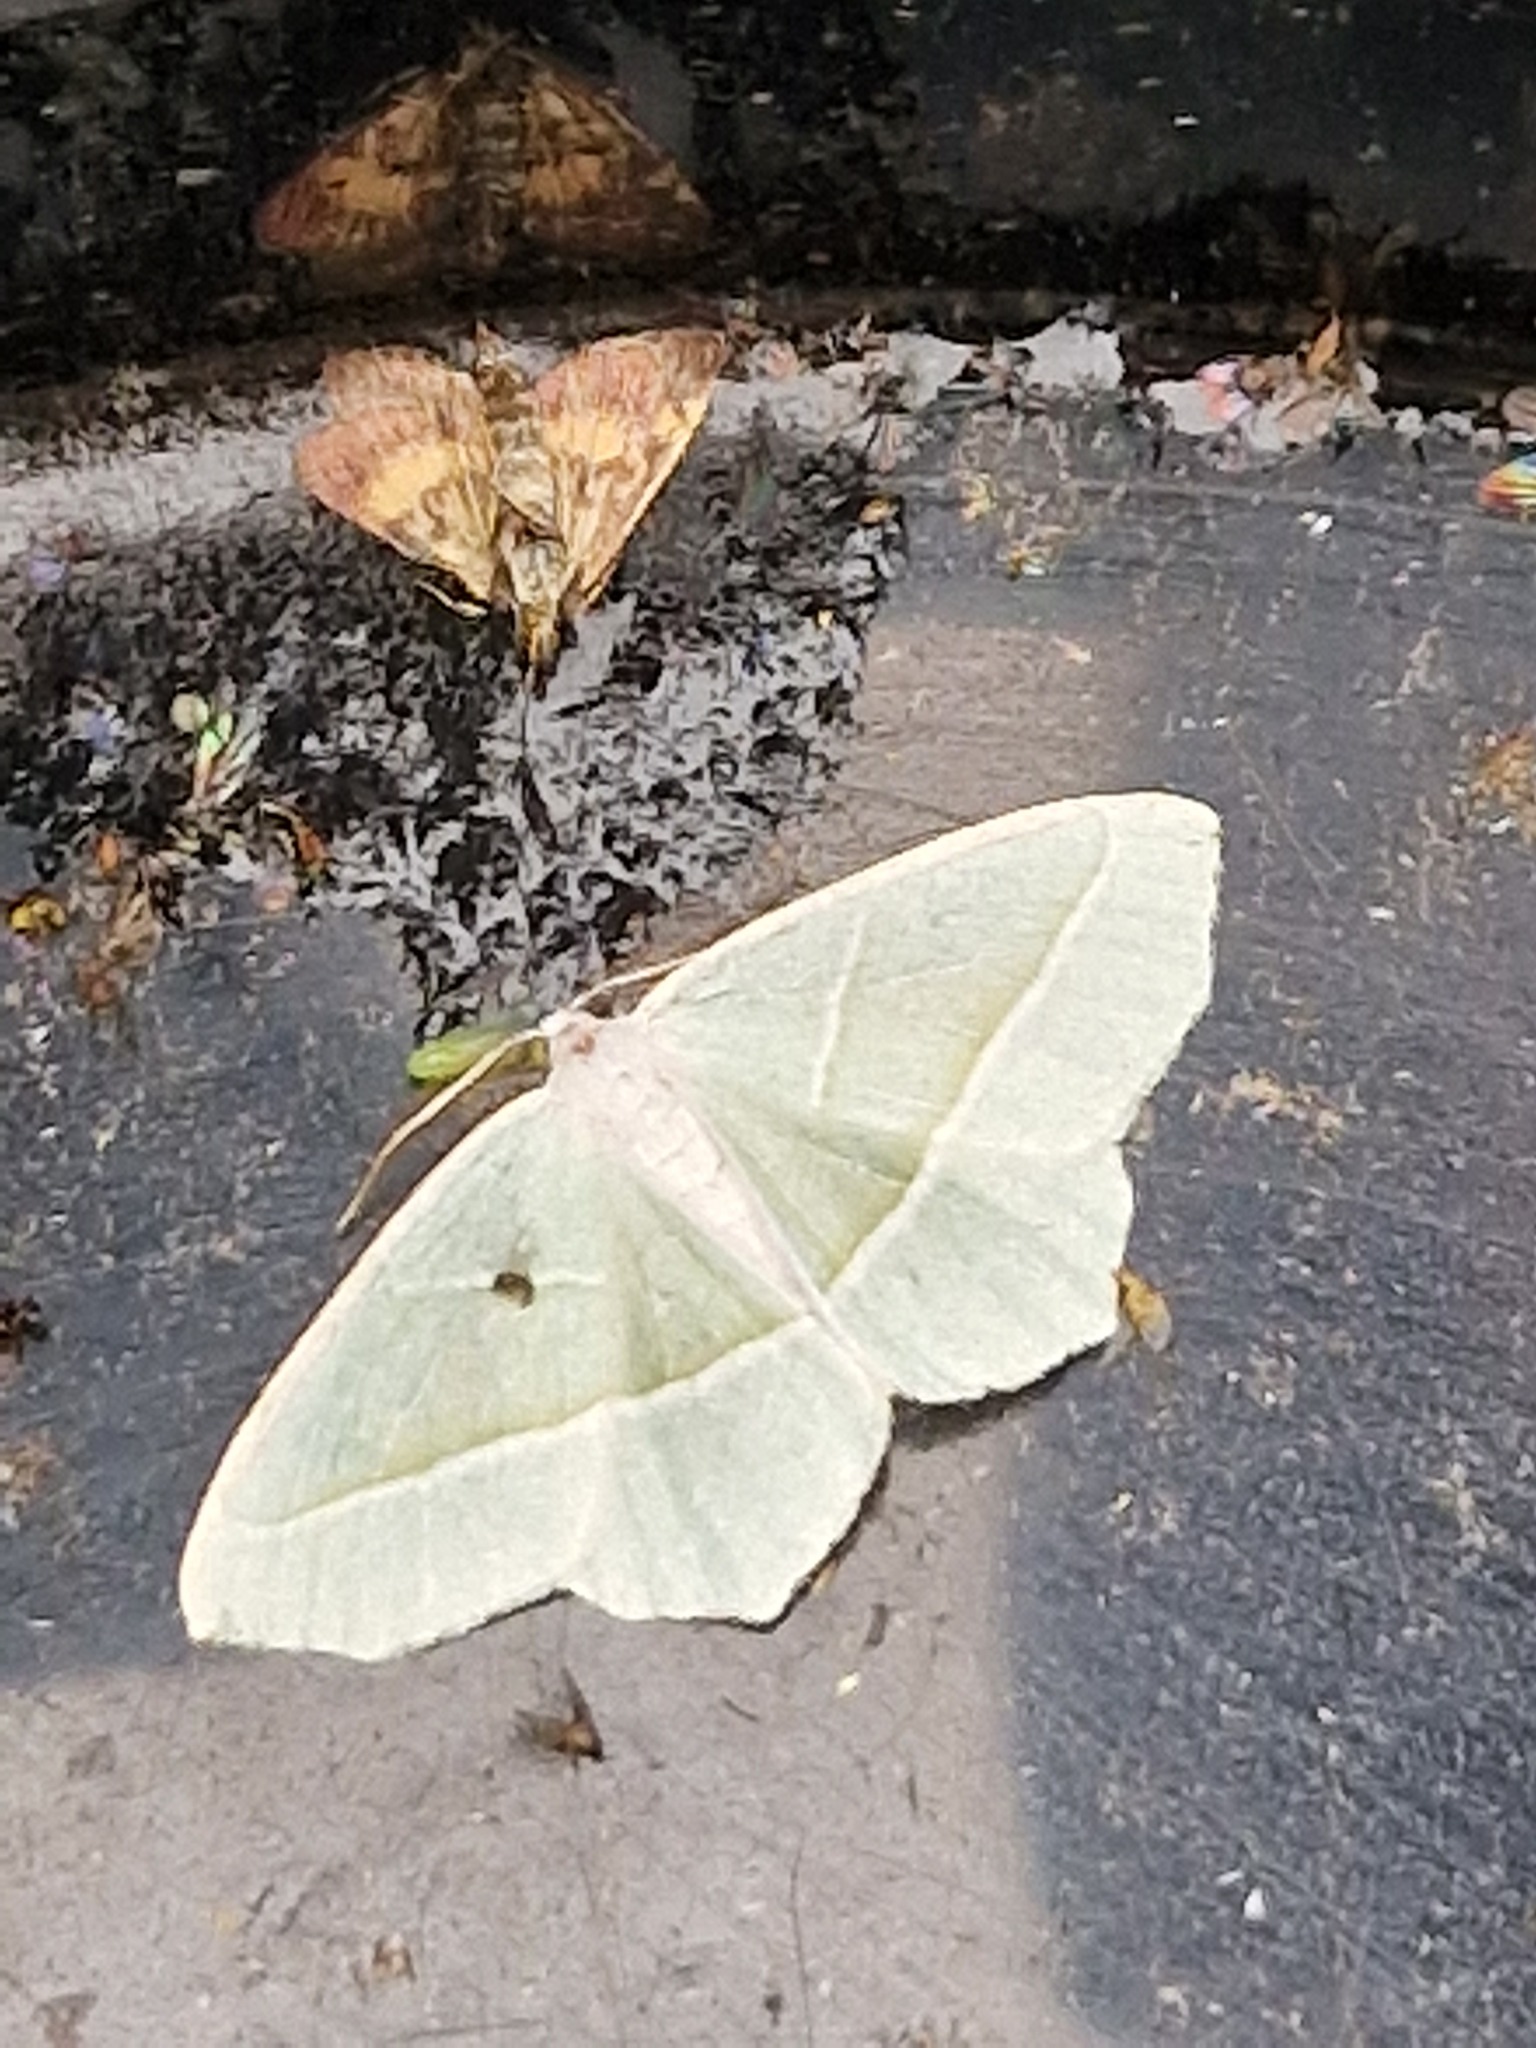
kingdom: Animalia
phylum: Arthropoda
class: Insecta
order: Lepidoptera
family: Geometridae
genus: Campaea
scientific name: Campaea margaritaria
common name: Light emerald
